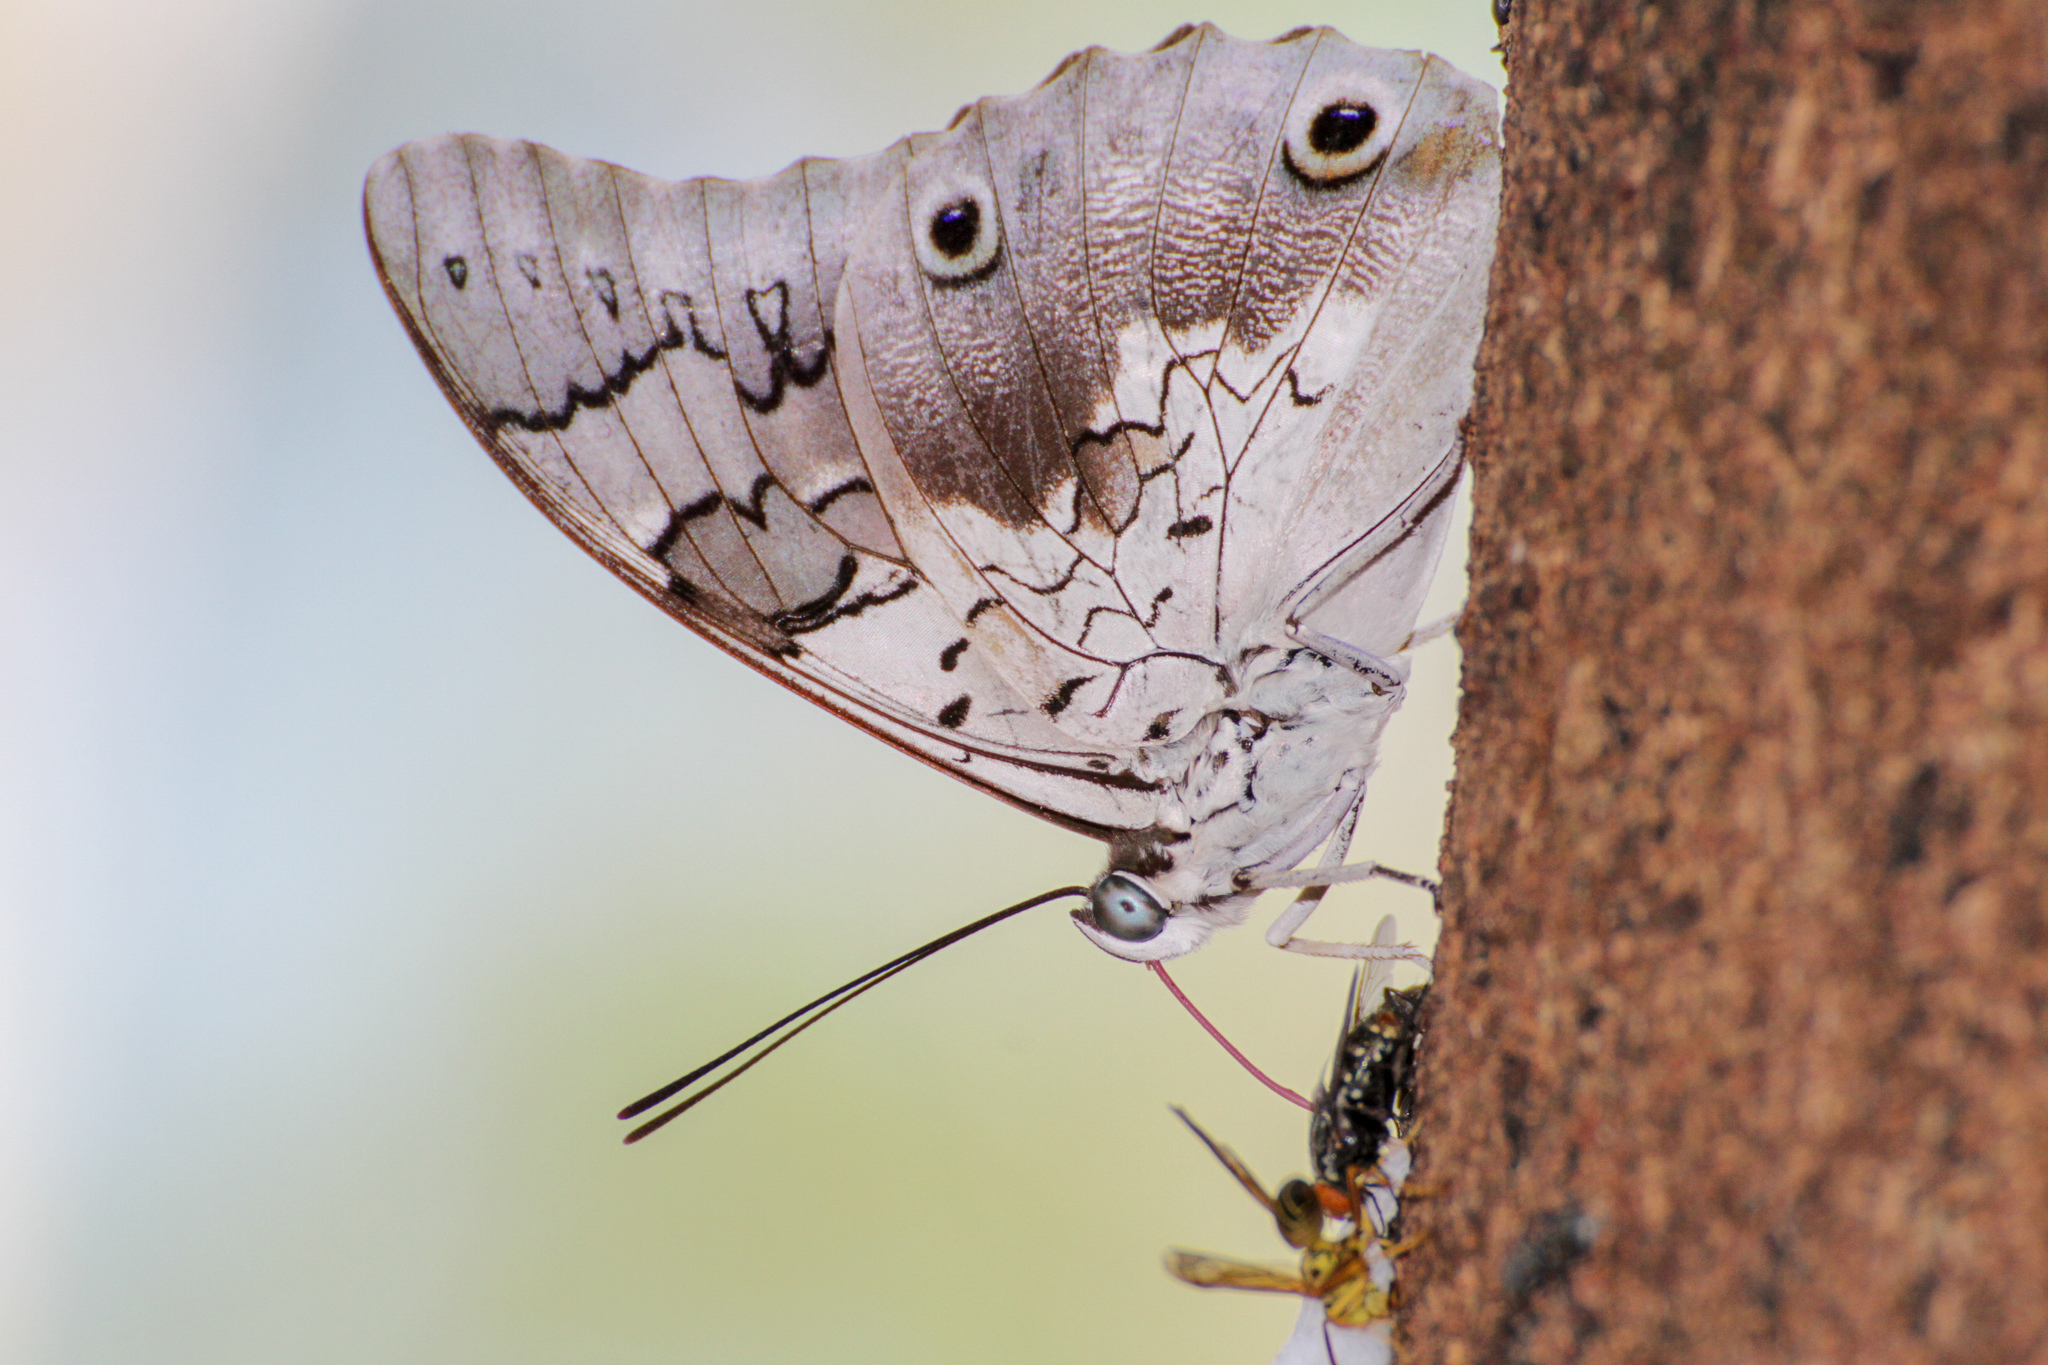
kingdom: Animalia
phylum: Arthropoda
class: Insecta
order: Lepidoptera
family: Nymphalidae
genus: Prepona
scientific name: Prepona gnorima
